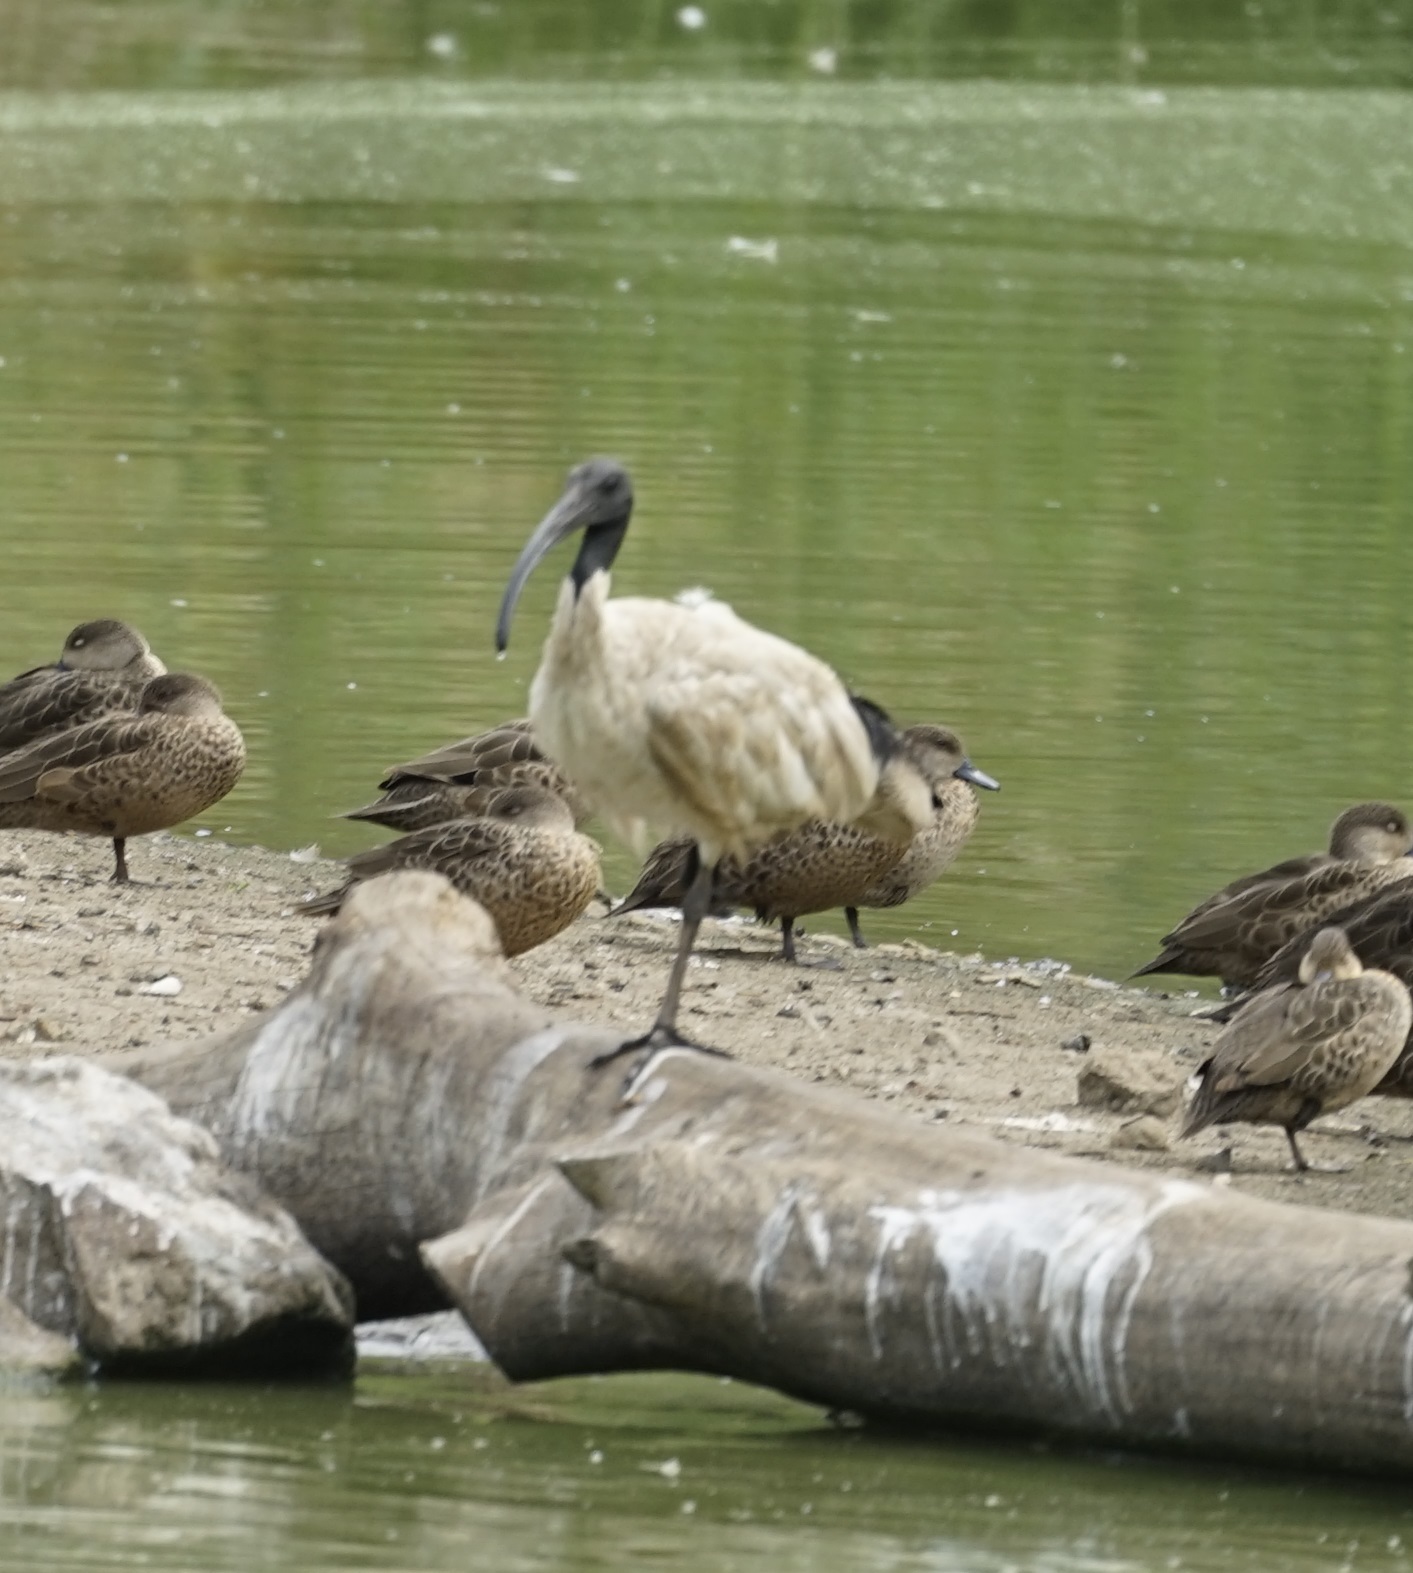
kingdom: Animalia
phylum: Chordata
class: Aves
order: Pelecaniformes
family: Threskiornithidae
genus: Threskiornis
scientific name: Threskiornis molucca
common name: Australian white ibis
